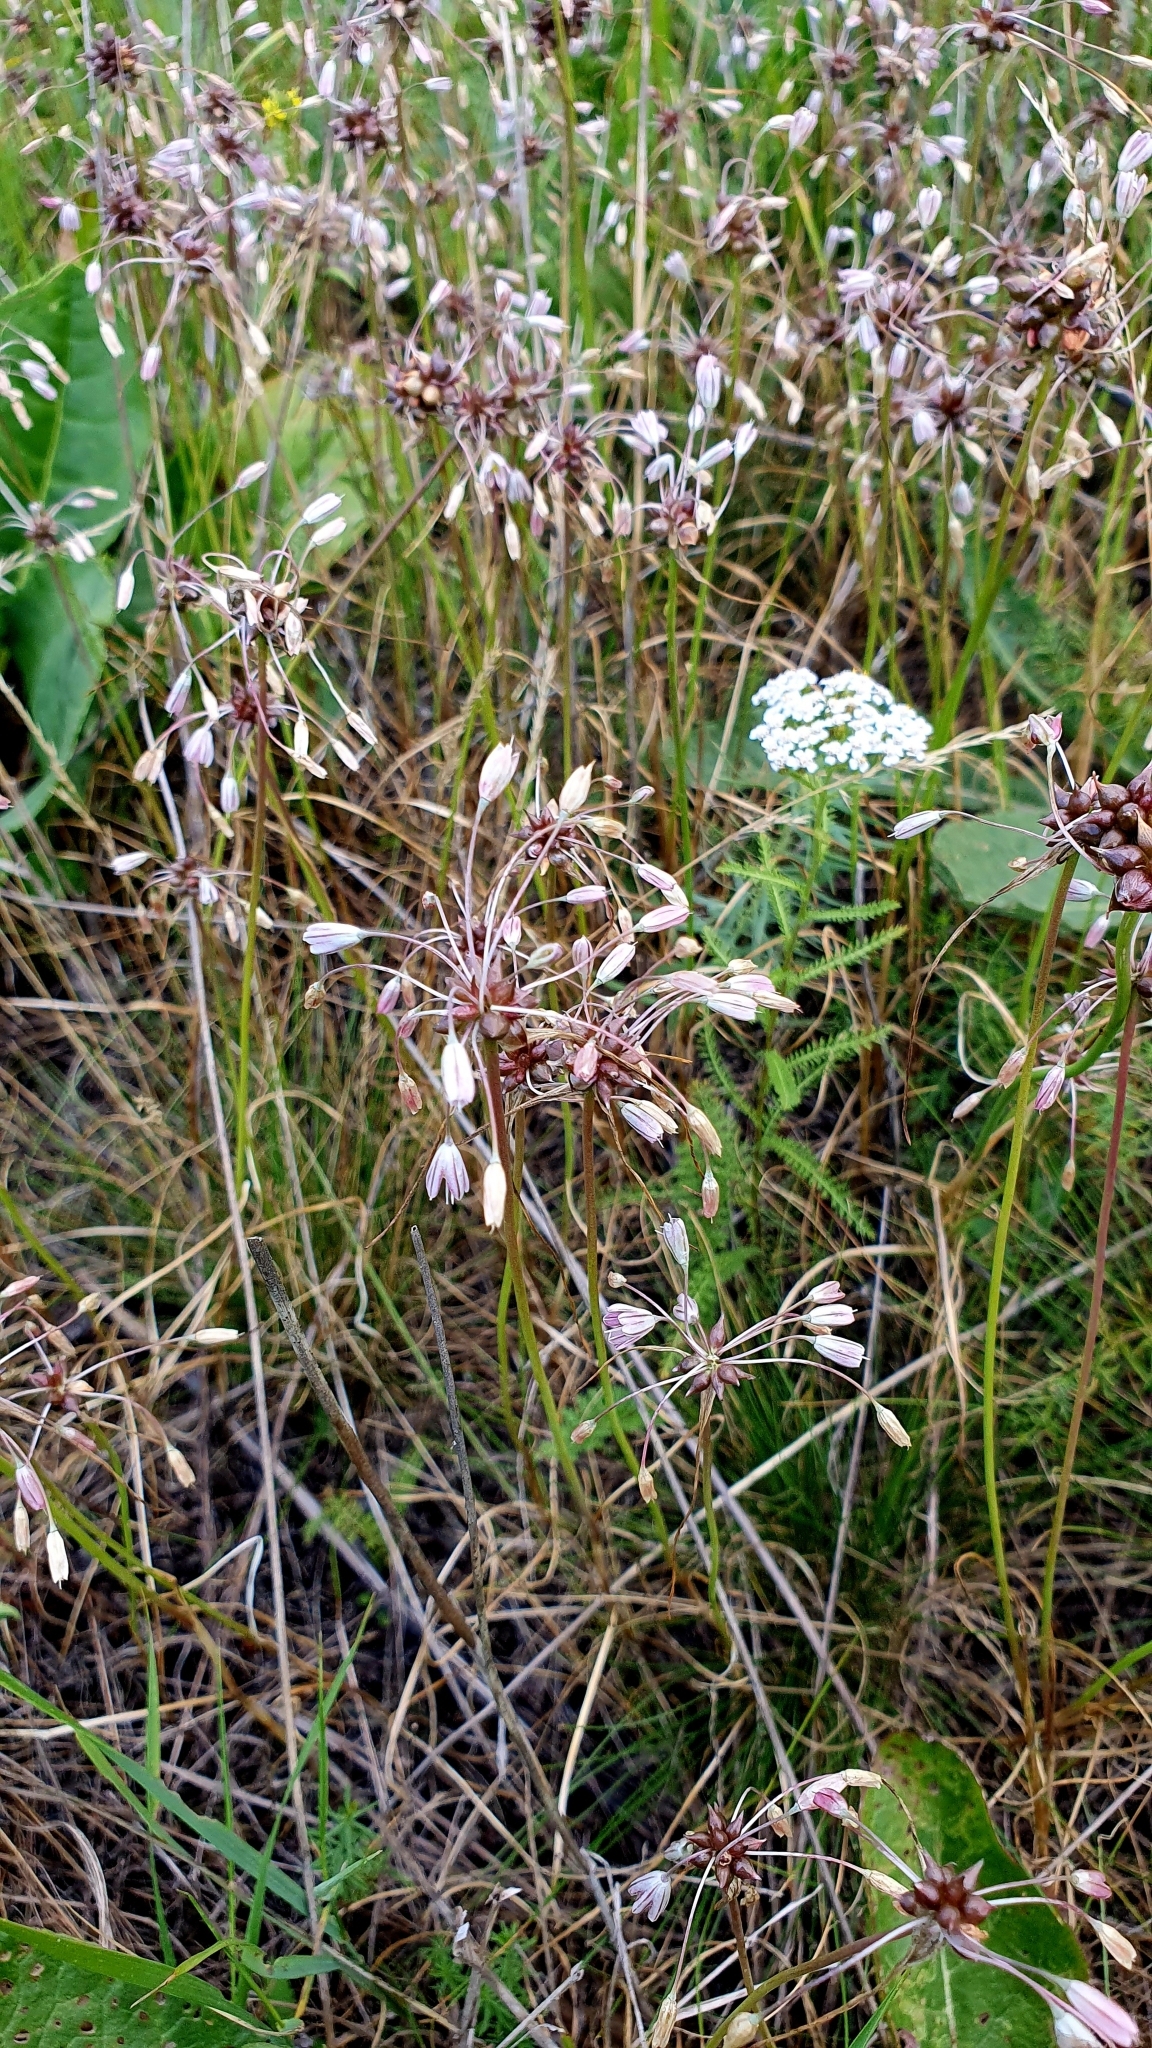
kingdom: Plantae
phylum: Tracheophyta
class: Liliopsida
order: Asparagales
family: Amaryllidaceae
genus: Allium
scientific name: Allium oleraceum
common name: Field garlic
